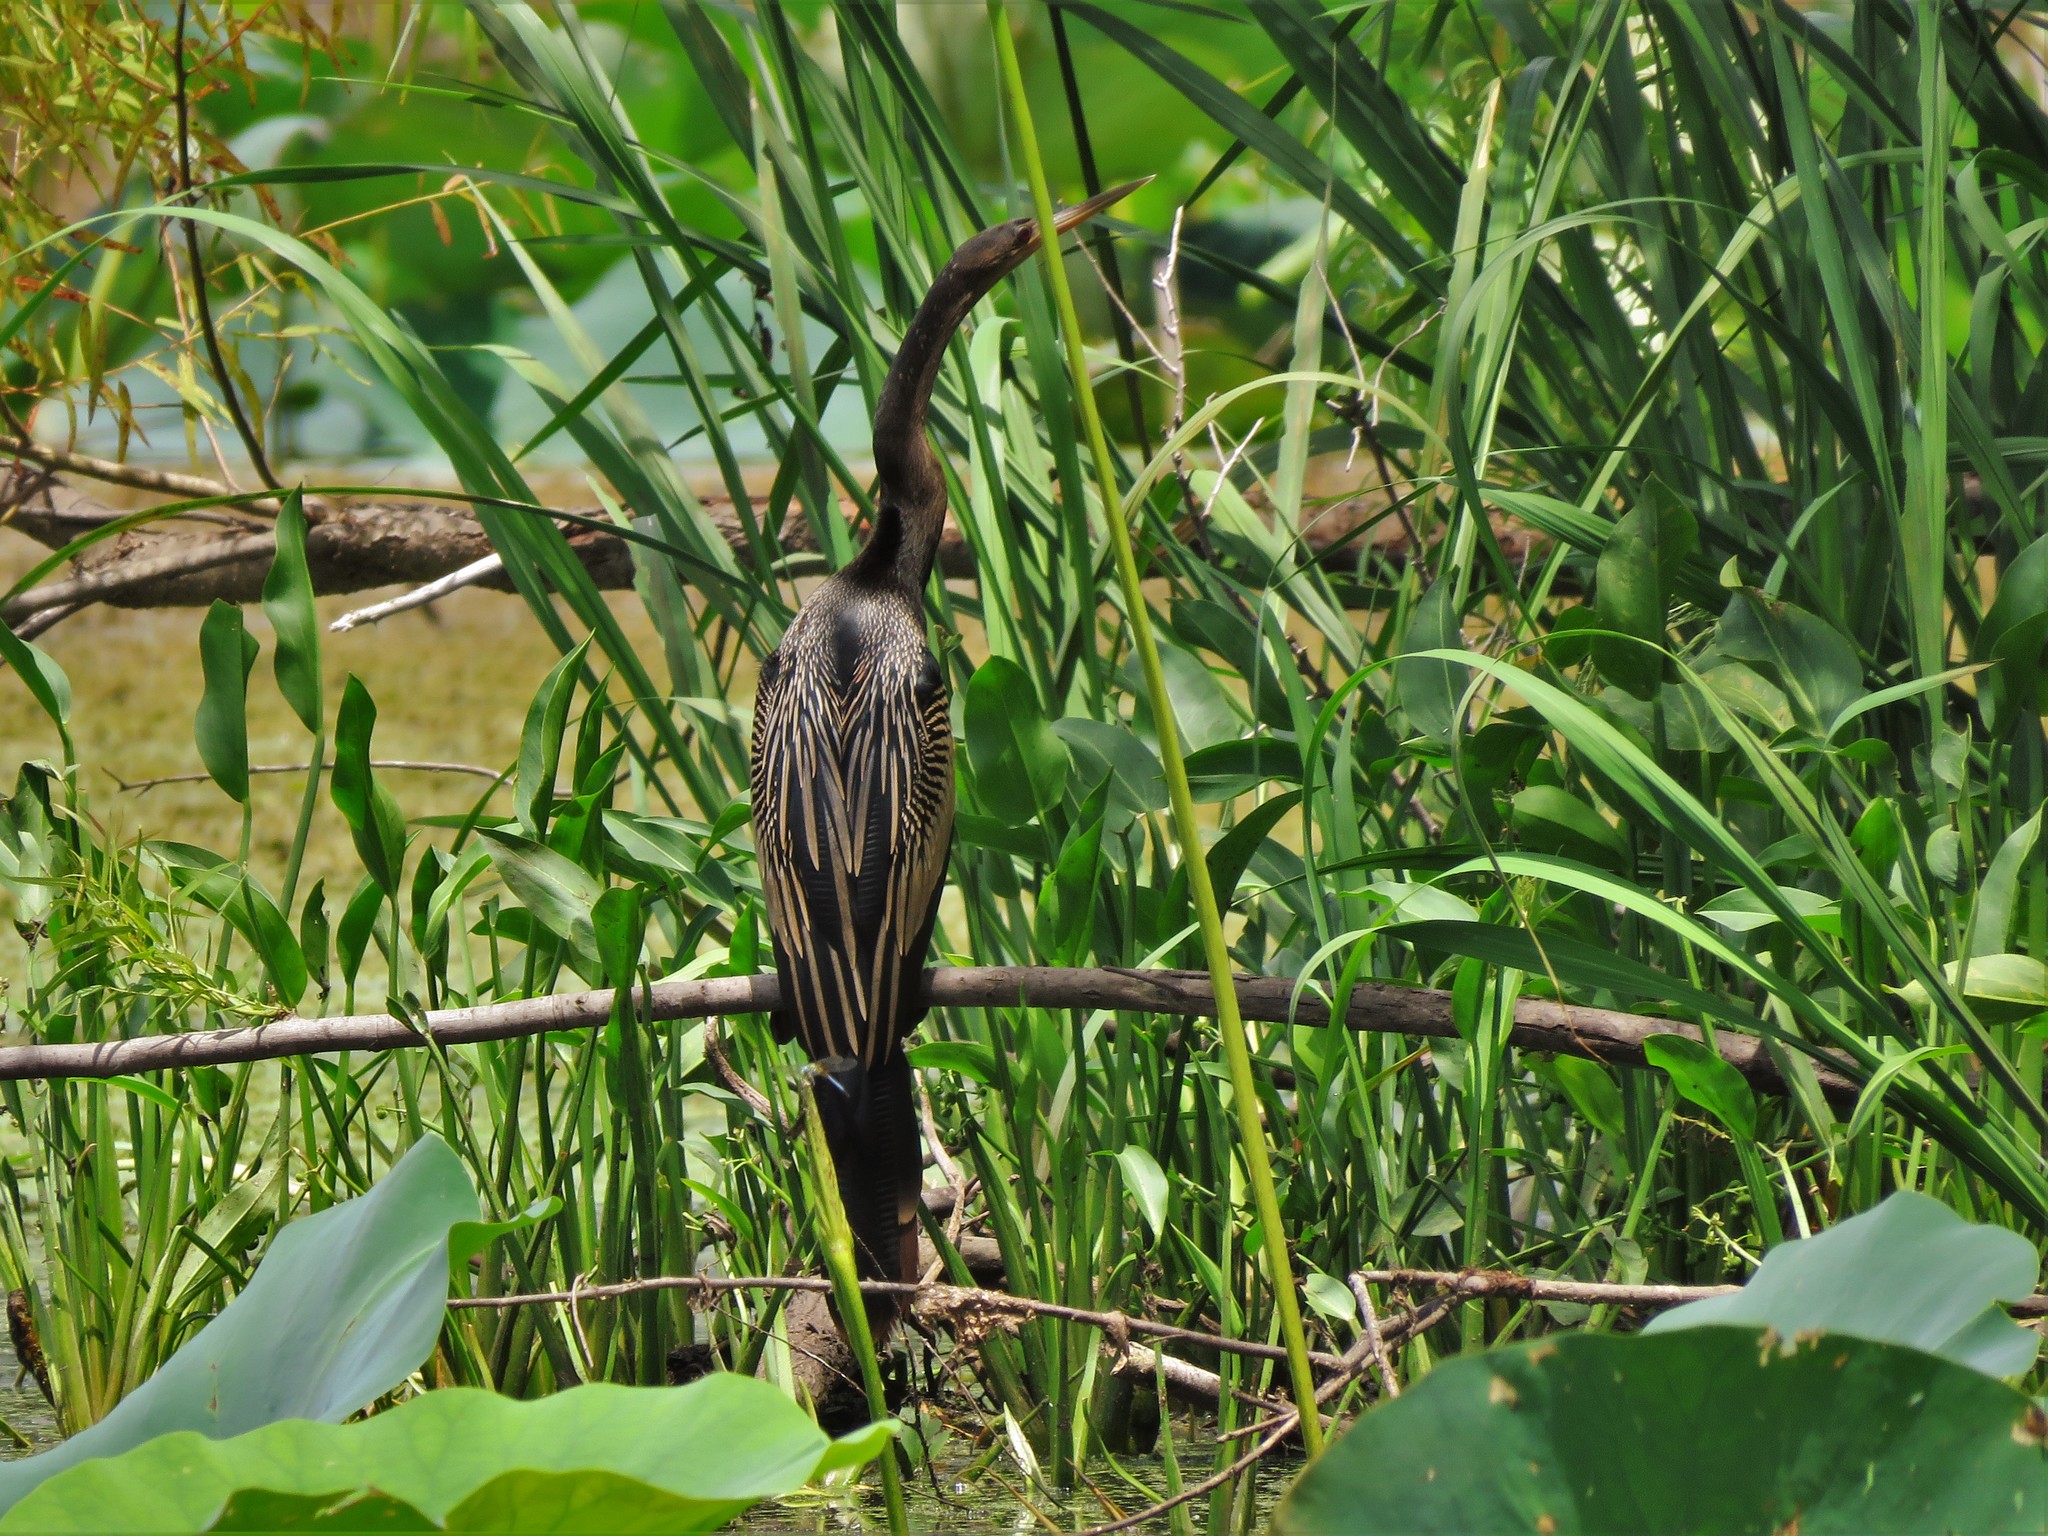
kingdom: Animalia
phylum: Chordata
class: Aves
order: Suliformes
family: Anhingidae
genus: Anhinga
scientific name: Anhinga anhinga
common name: Anhinga
